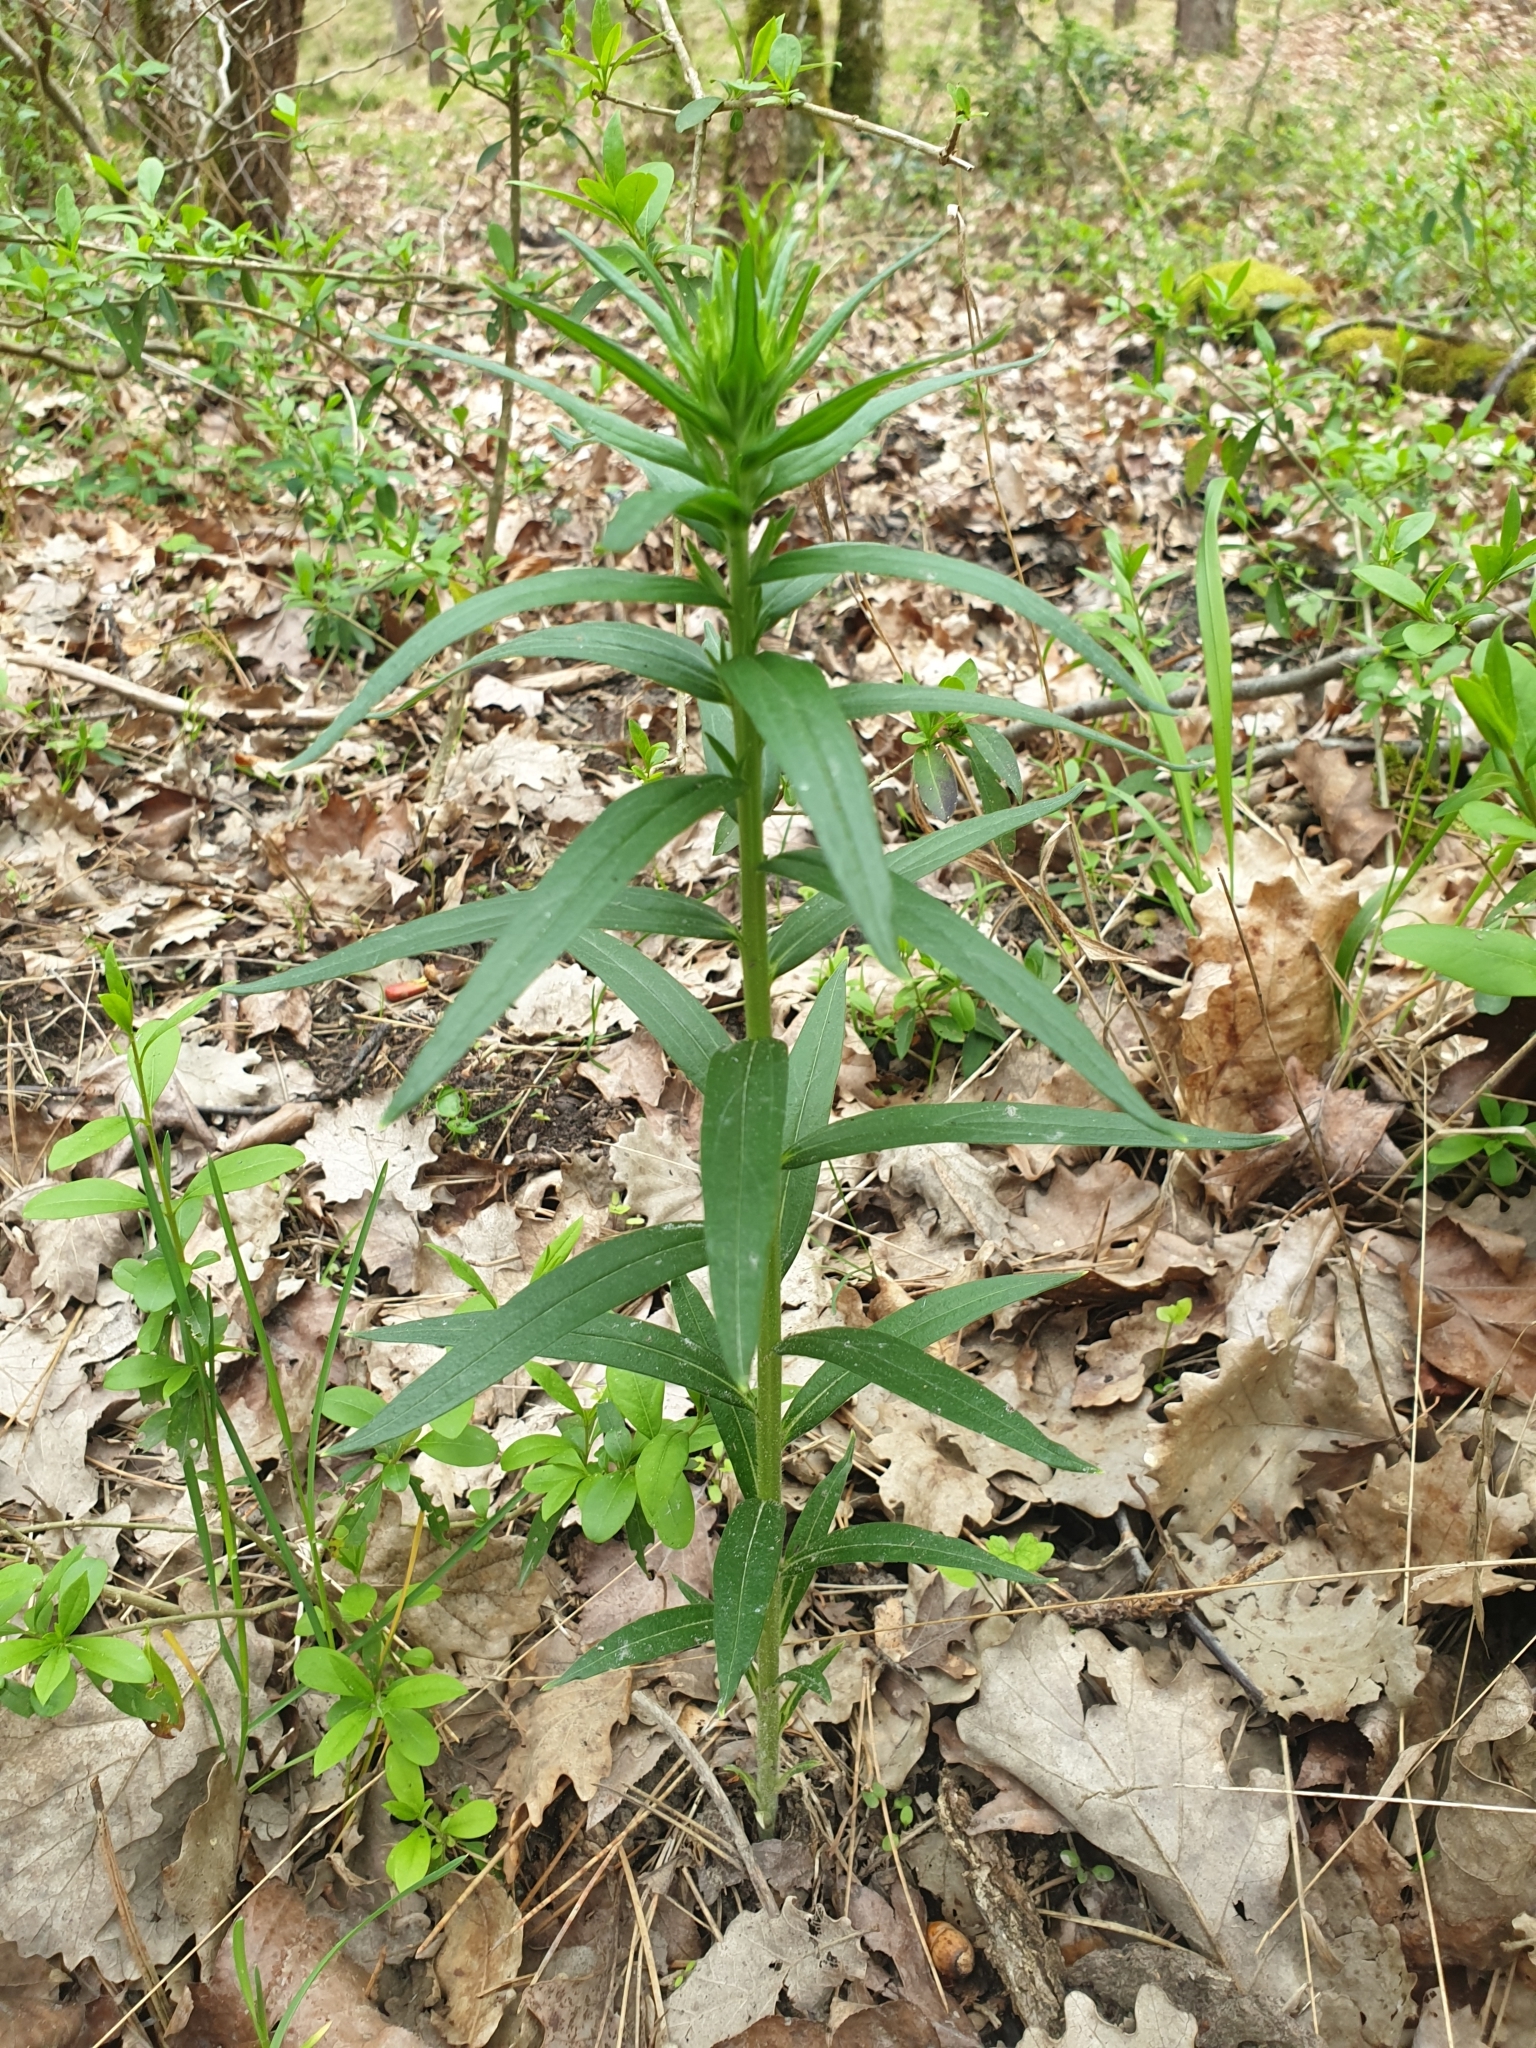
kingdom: Plantae
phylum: Tracheophyta
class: Magnoliopsida
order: Boraginales
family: Boraginaceae
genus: Lithospermum
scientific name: Lithospermum officinale
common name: Common gromwell
